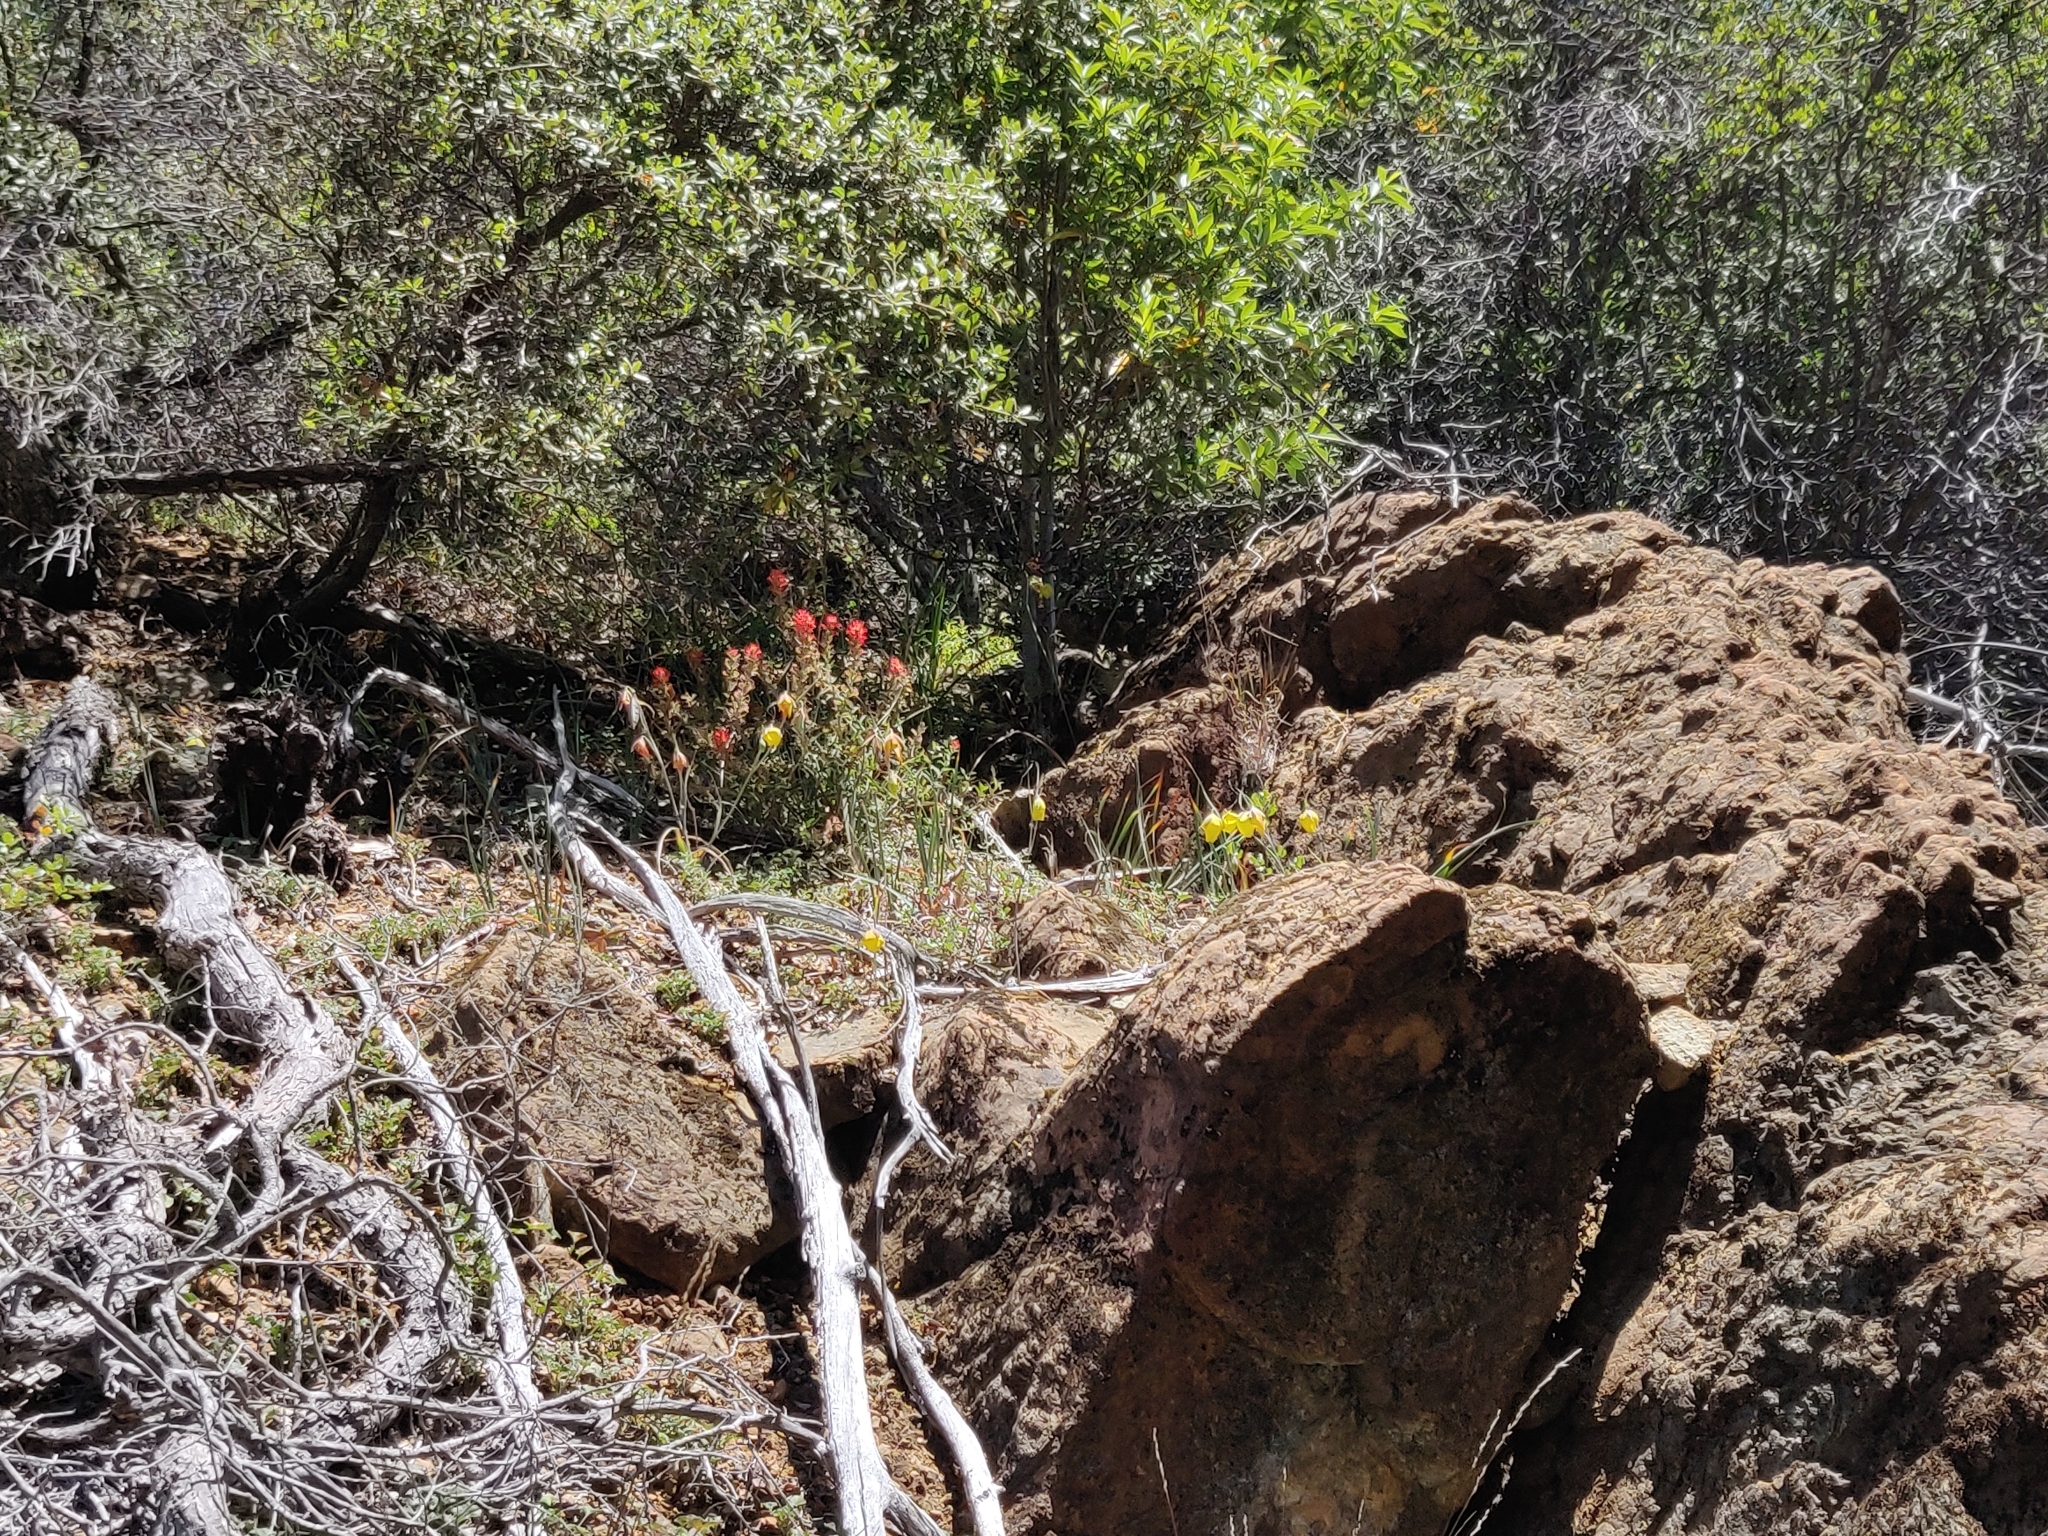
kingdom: Plantae
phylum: Tracheophyta
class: Liliopsida
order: Liliales
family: Liliaceae
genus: Calochortus
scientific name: Calochortus raichei
